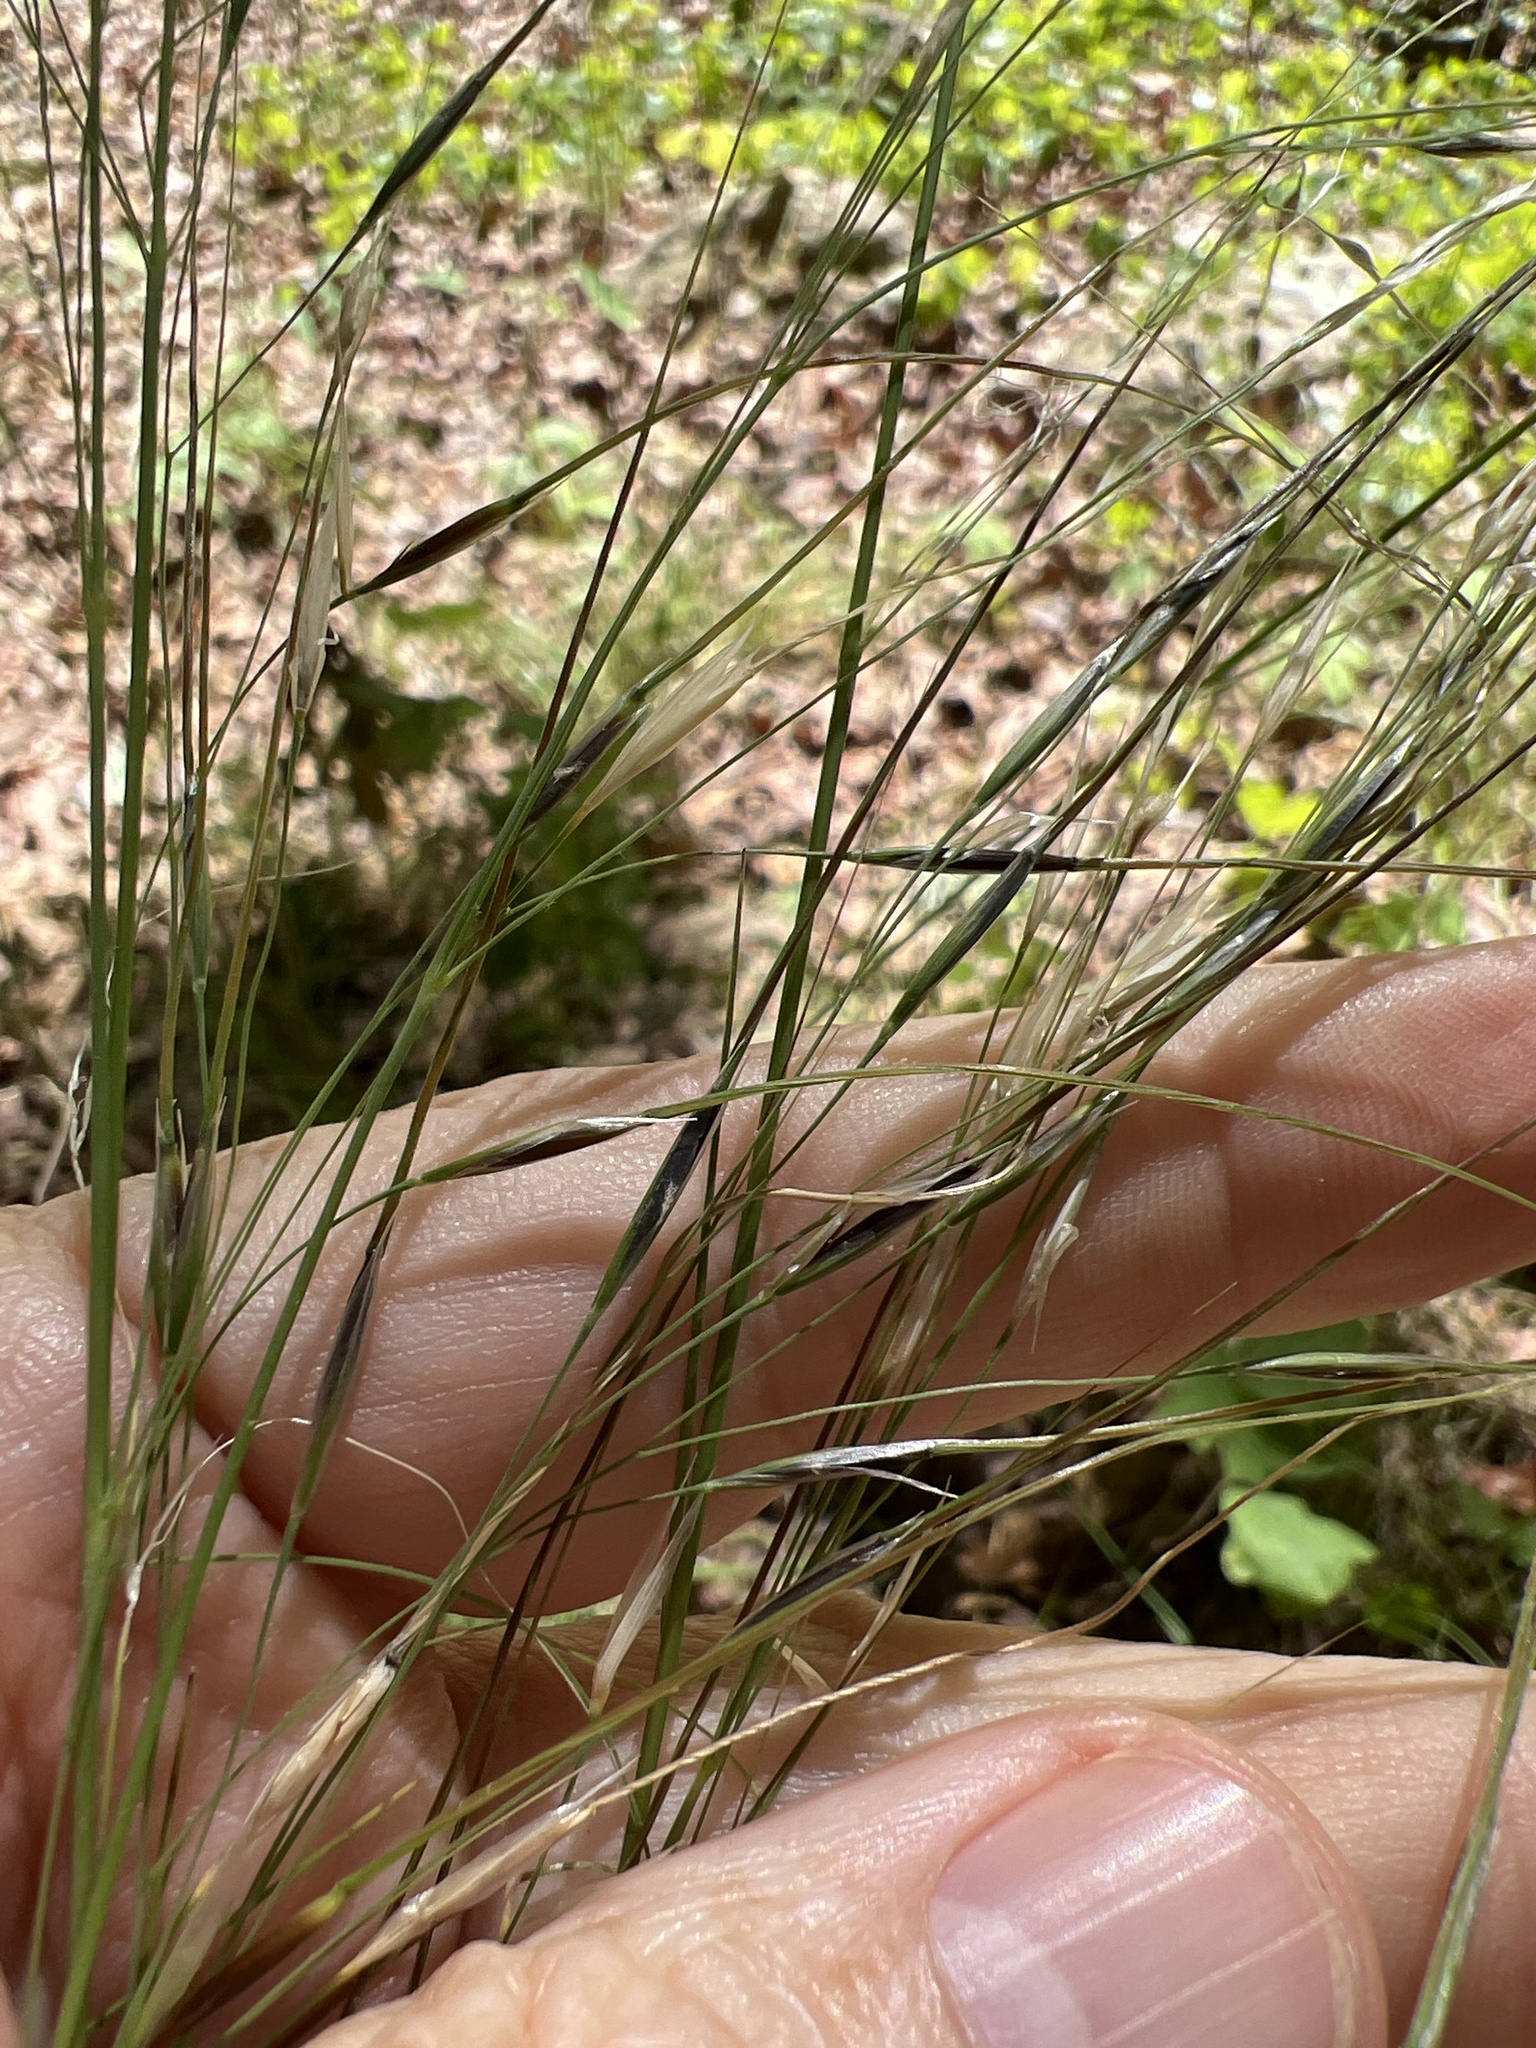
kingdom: Plantae
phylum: Tracheophyta
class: Liliopsida
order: Poales
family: Poaceae
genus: Piptochaetium
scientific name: Piptochaetium avenaceum
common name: Black bunchgrass
